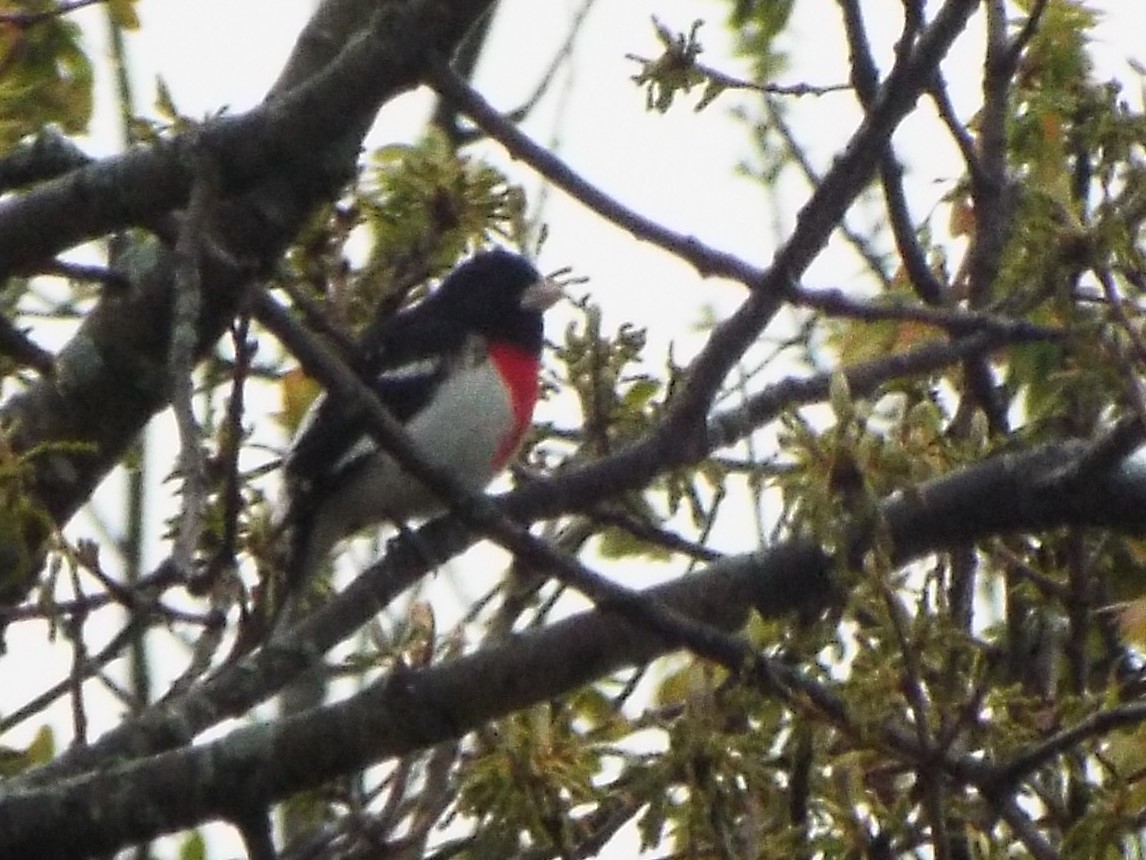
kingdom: Animalia
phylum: Chordata
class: Aves
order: Passeriformes
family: Cardinalidae
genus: Pheucticus
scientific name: Pheucticus ludovicianus
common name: Rose-breasted grosbeak
